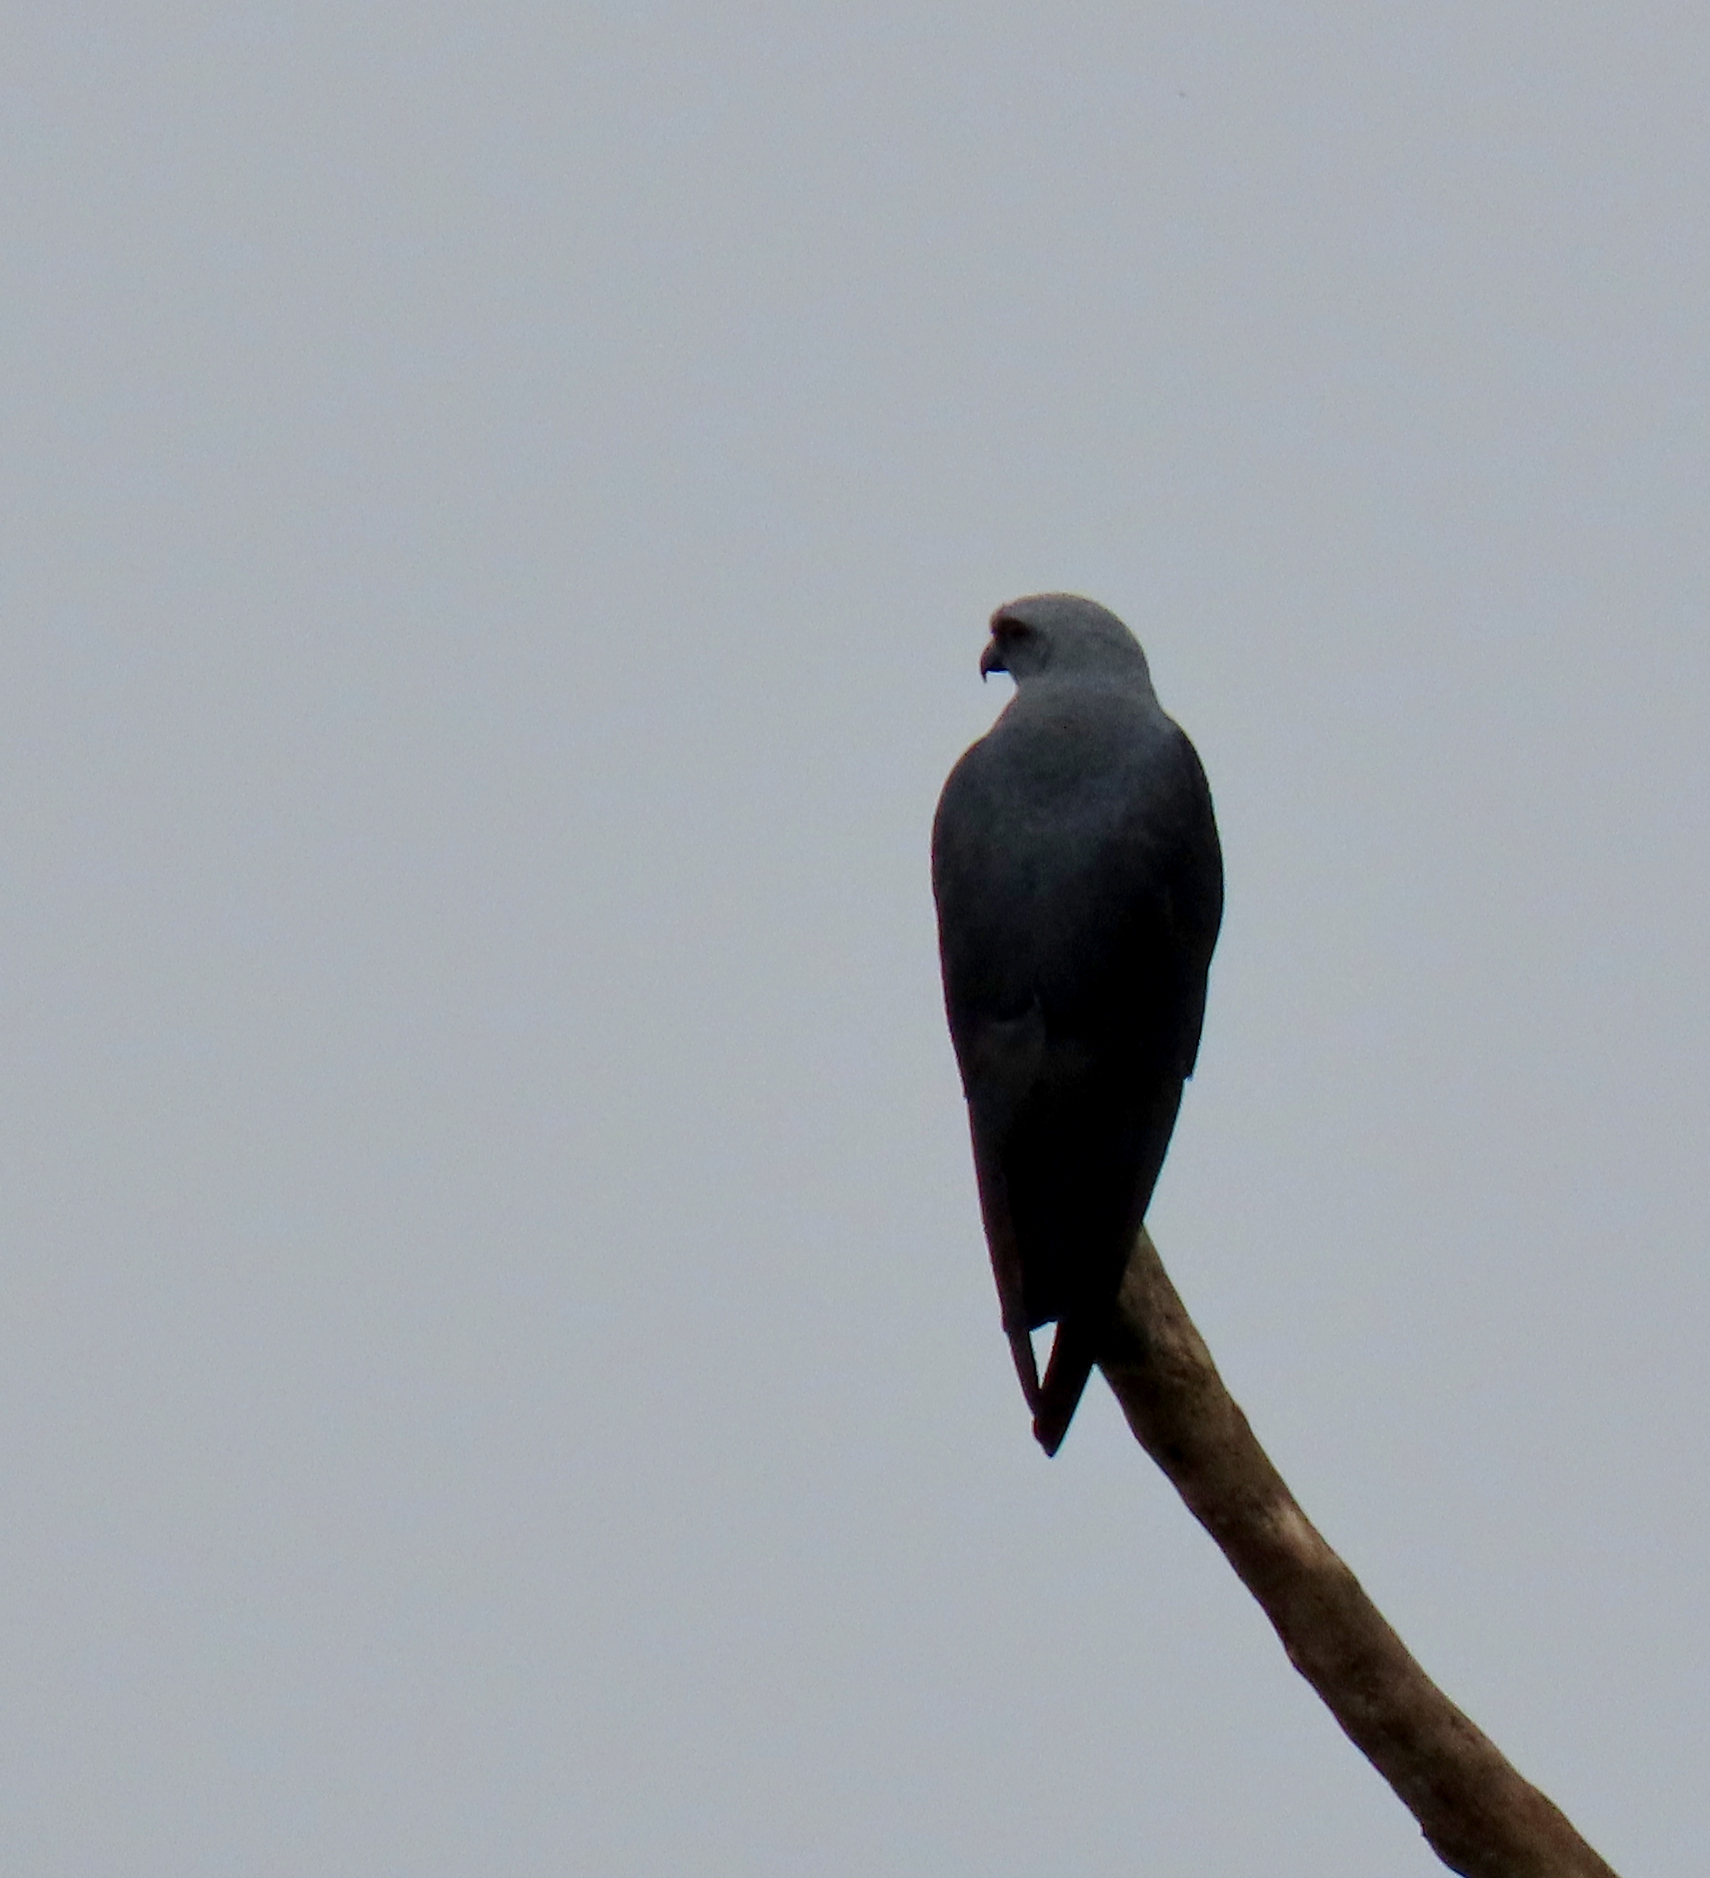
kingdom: Animalia
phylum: Chordata
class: Aves
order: Accipitriformes
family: Accipitridae
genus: Ictinia
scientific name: Ictinia plumbea
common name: Plumbeous kite
